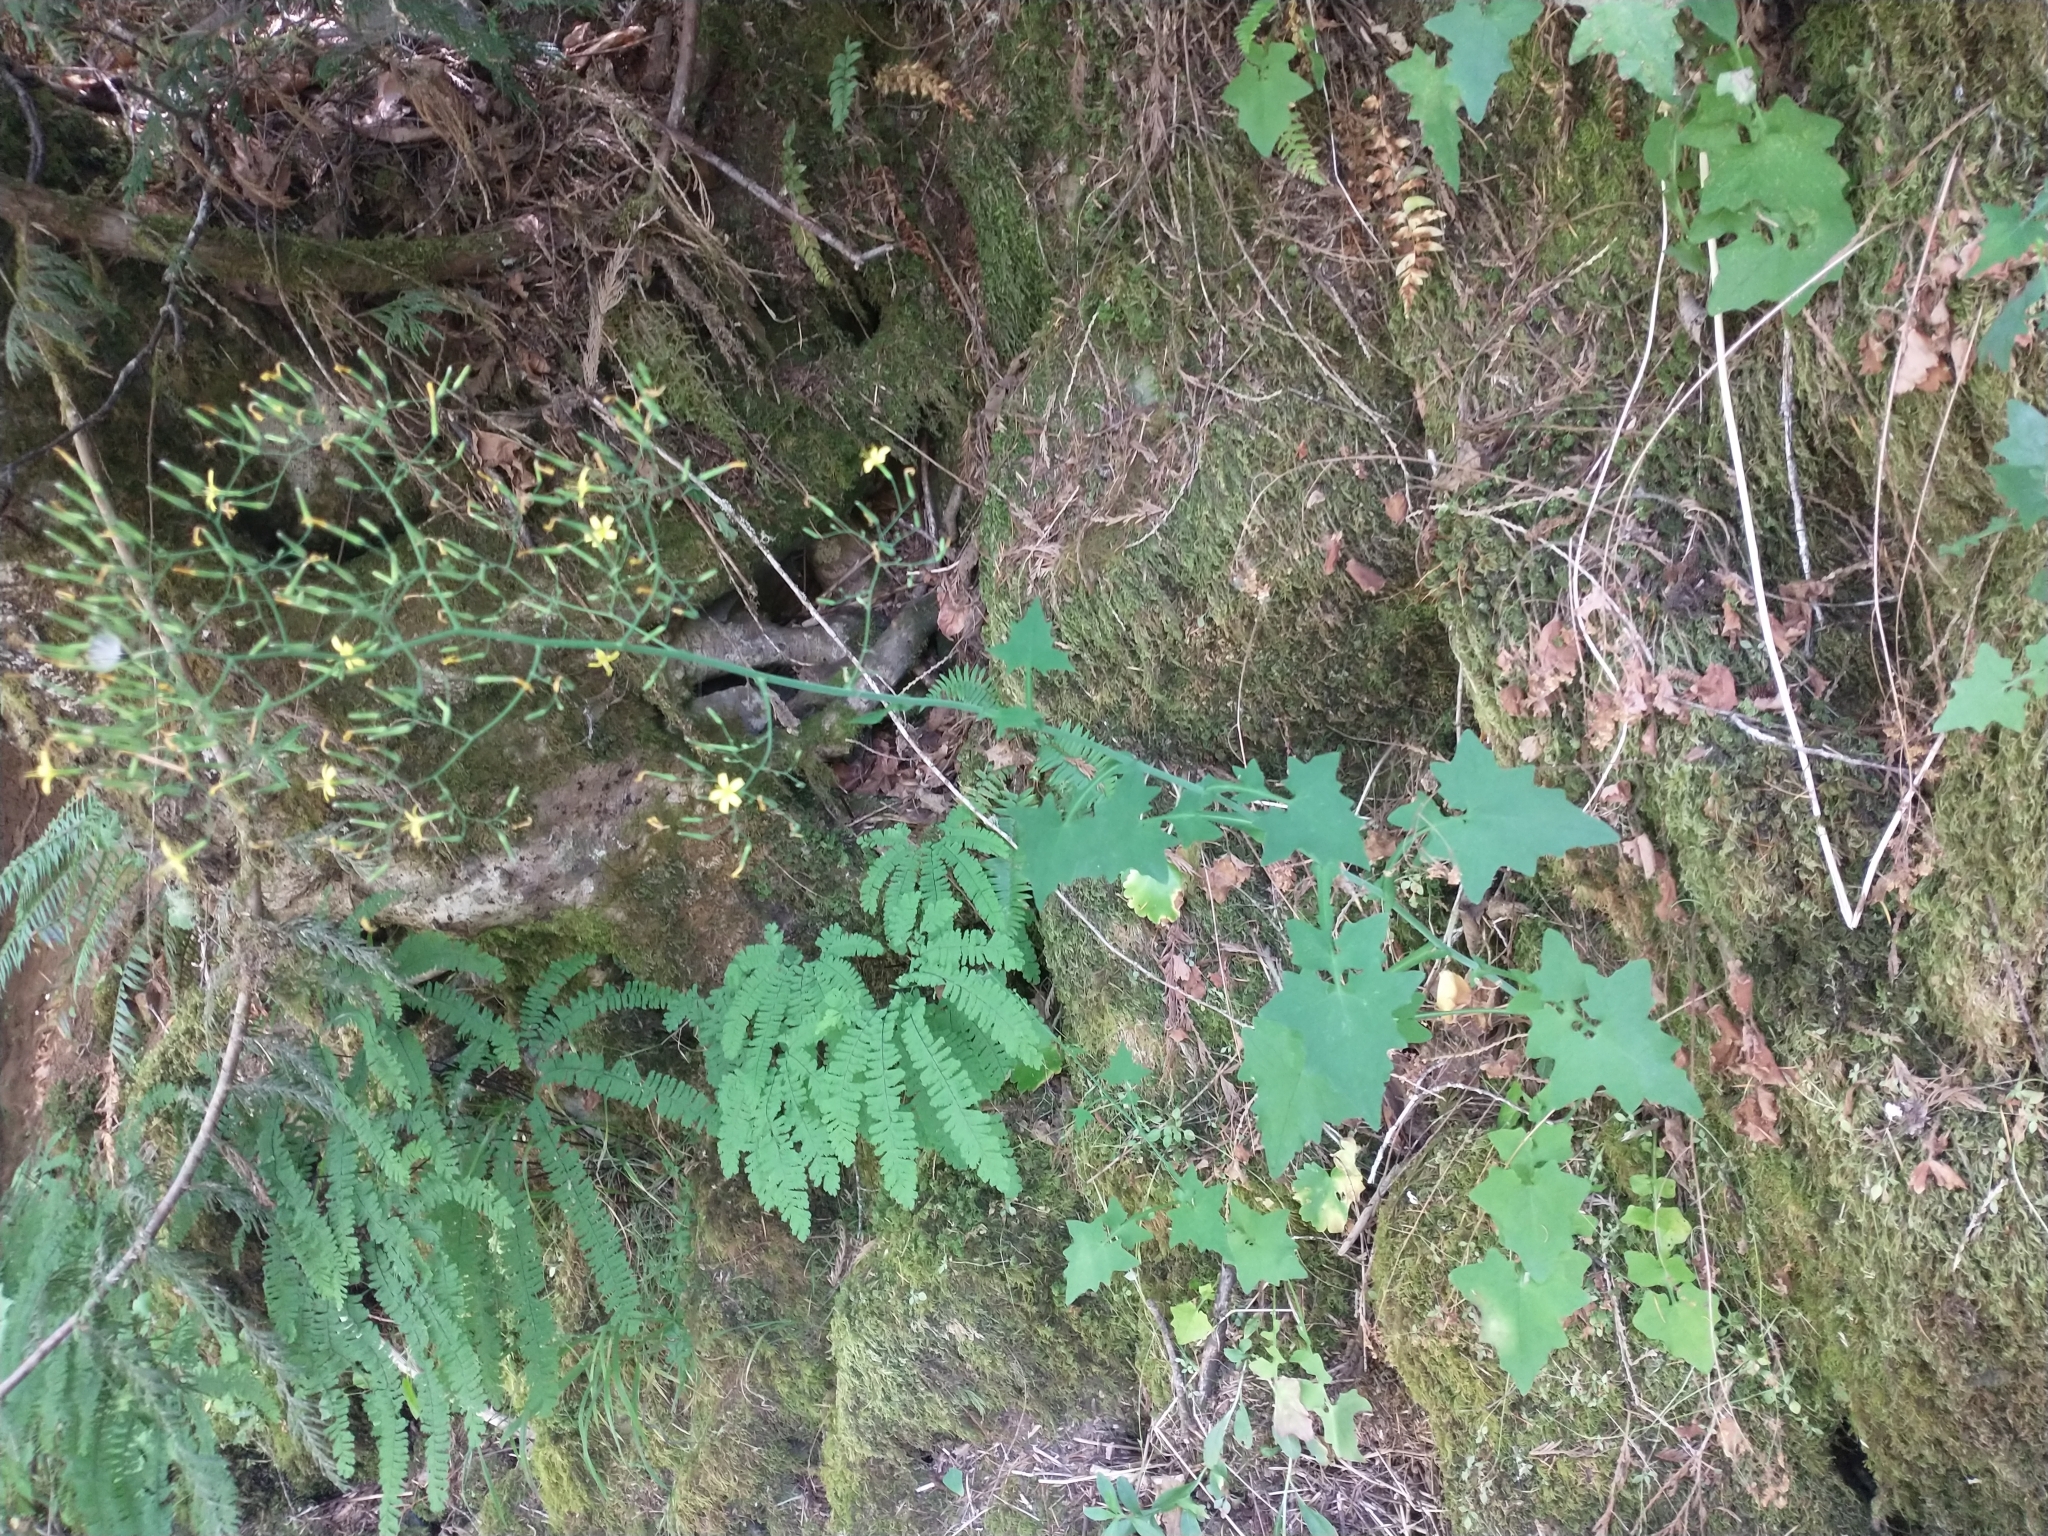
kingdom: Plantae
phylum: Tracheophyta
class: Magnoliopsida
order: Asterales
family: Asteraceae
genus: Mycelis
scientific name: Mycelis muralis
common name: Wall lettuce
